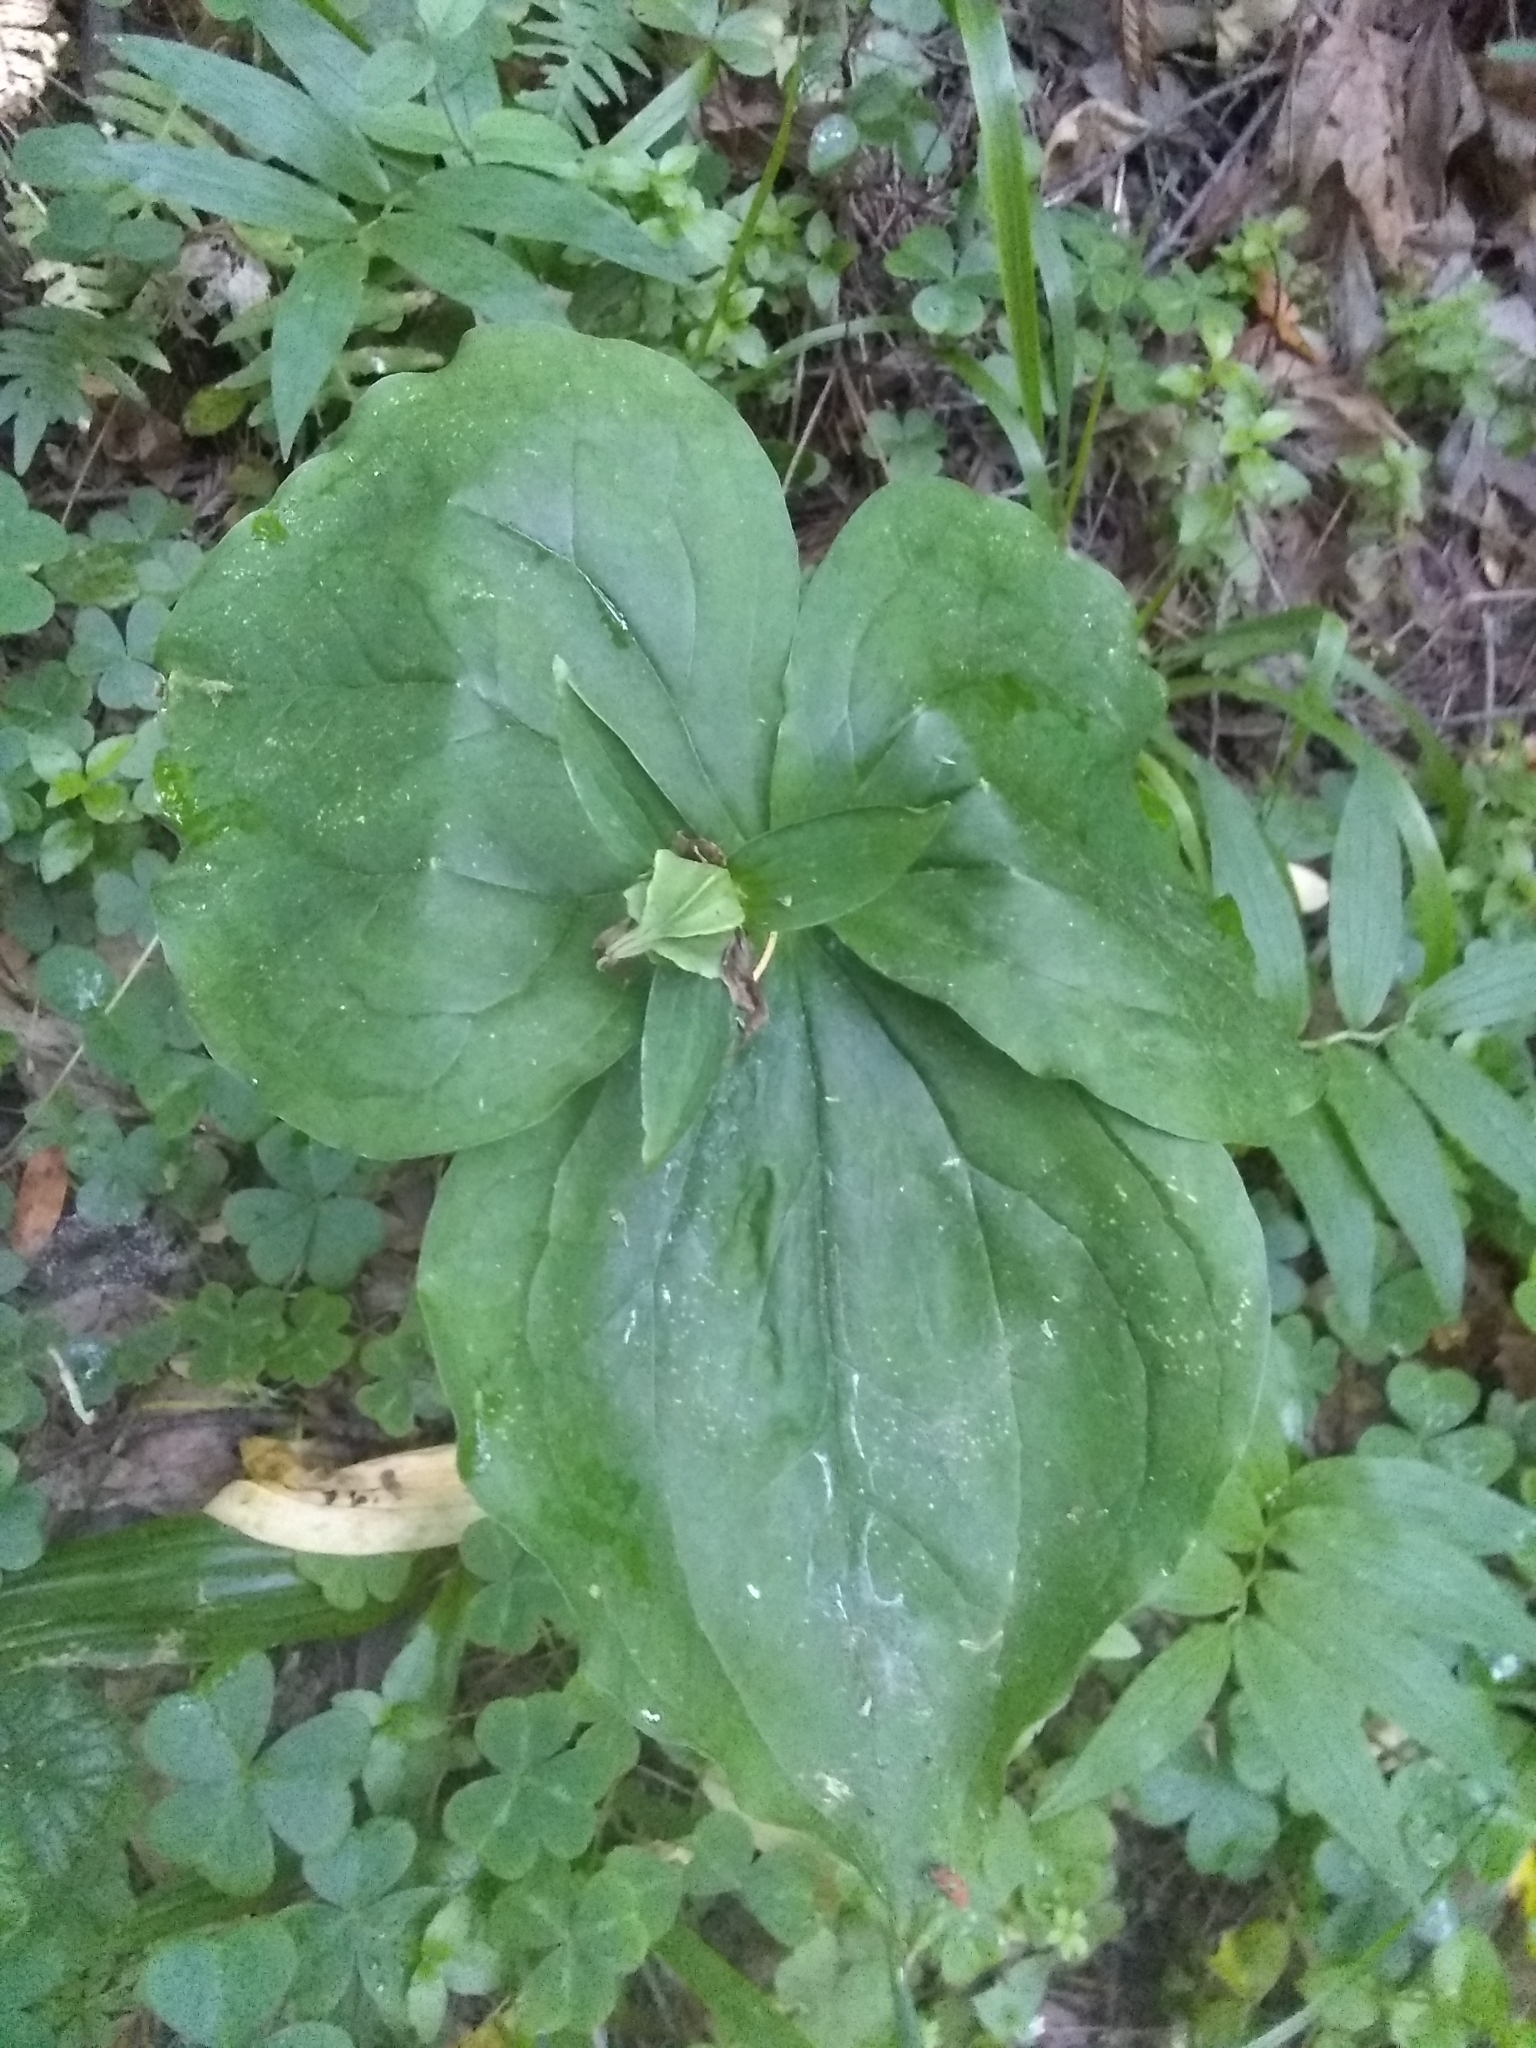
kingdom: Plantae
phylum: Tracheophyta
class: Liliopsida
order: Liliales
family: Melanthiaceae
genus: Trillium
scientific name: Trillium ovatum
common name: Pacific trillium
